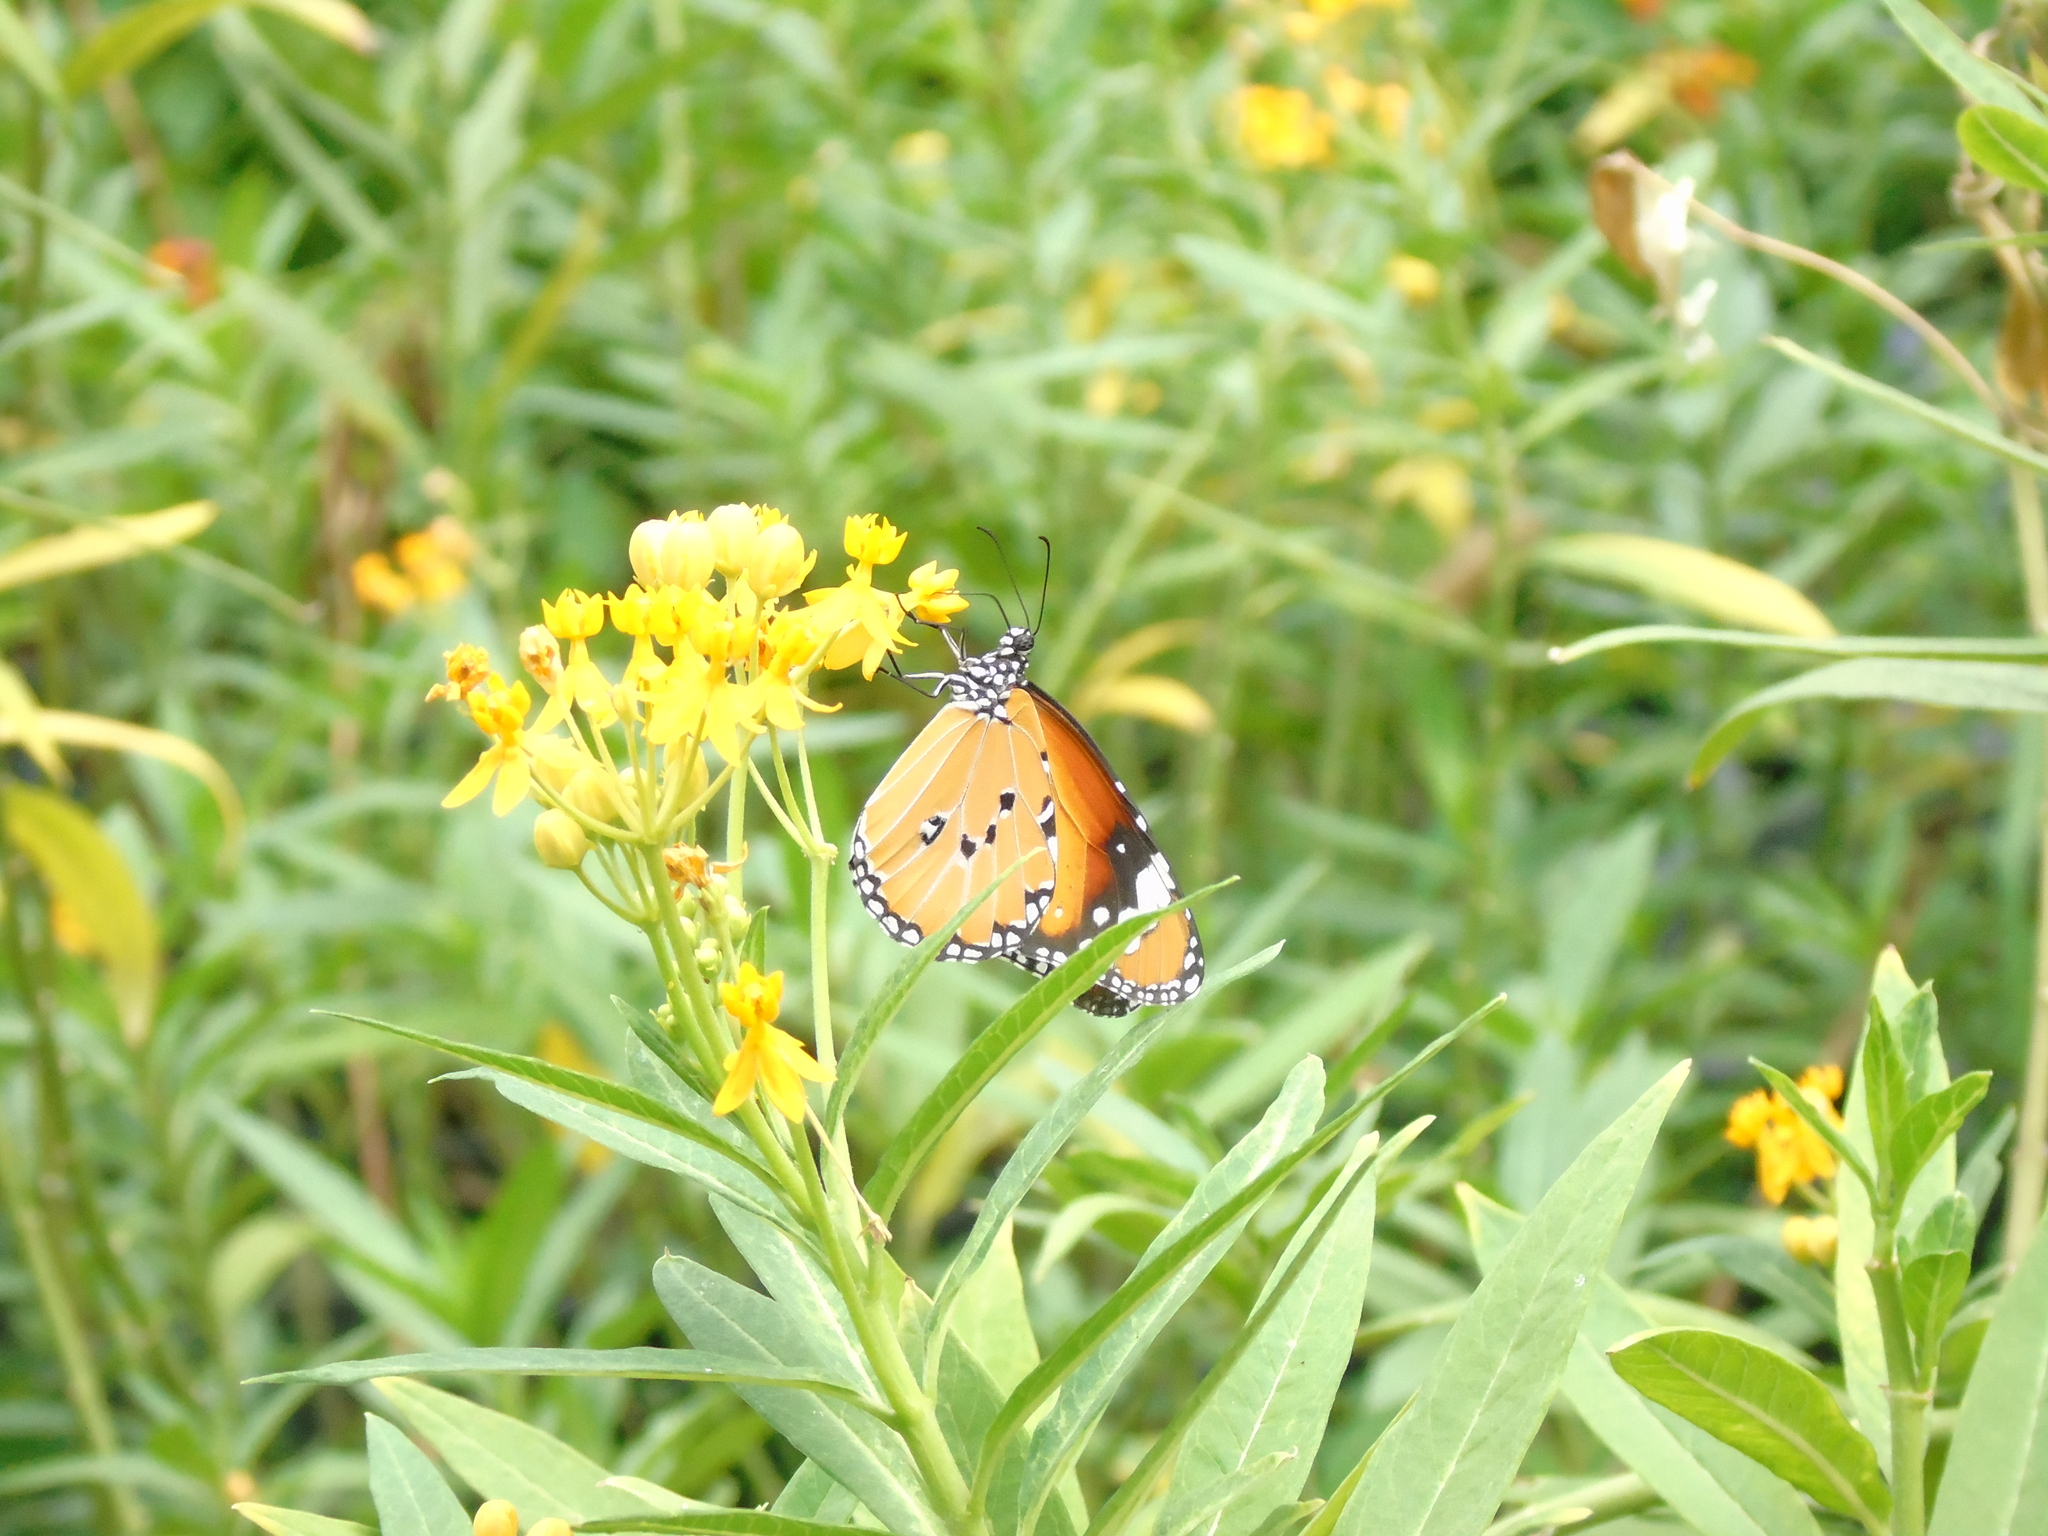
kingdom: Animalia
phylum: Arthropoda
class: Insecta
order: Lepidoptera
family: Nymphalidae
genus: Danaus
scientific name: Danaus chrysippus
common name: Plain tiger
